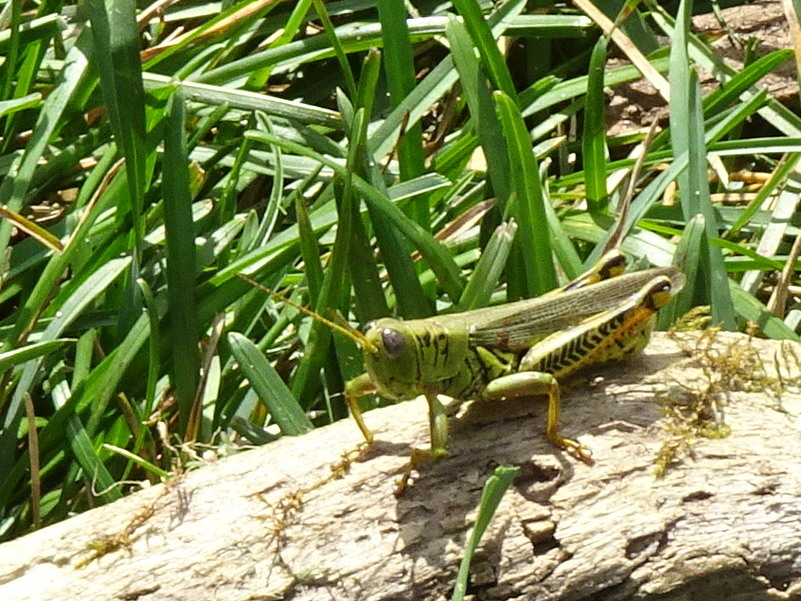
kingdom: Animalia
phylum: Arthropoda
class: Insecta
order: Orthoptera
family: Acrididae
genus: Melanoplus
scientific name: Melanoplus differentialis
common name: Differential grasshopper
